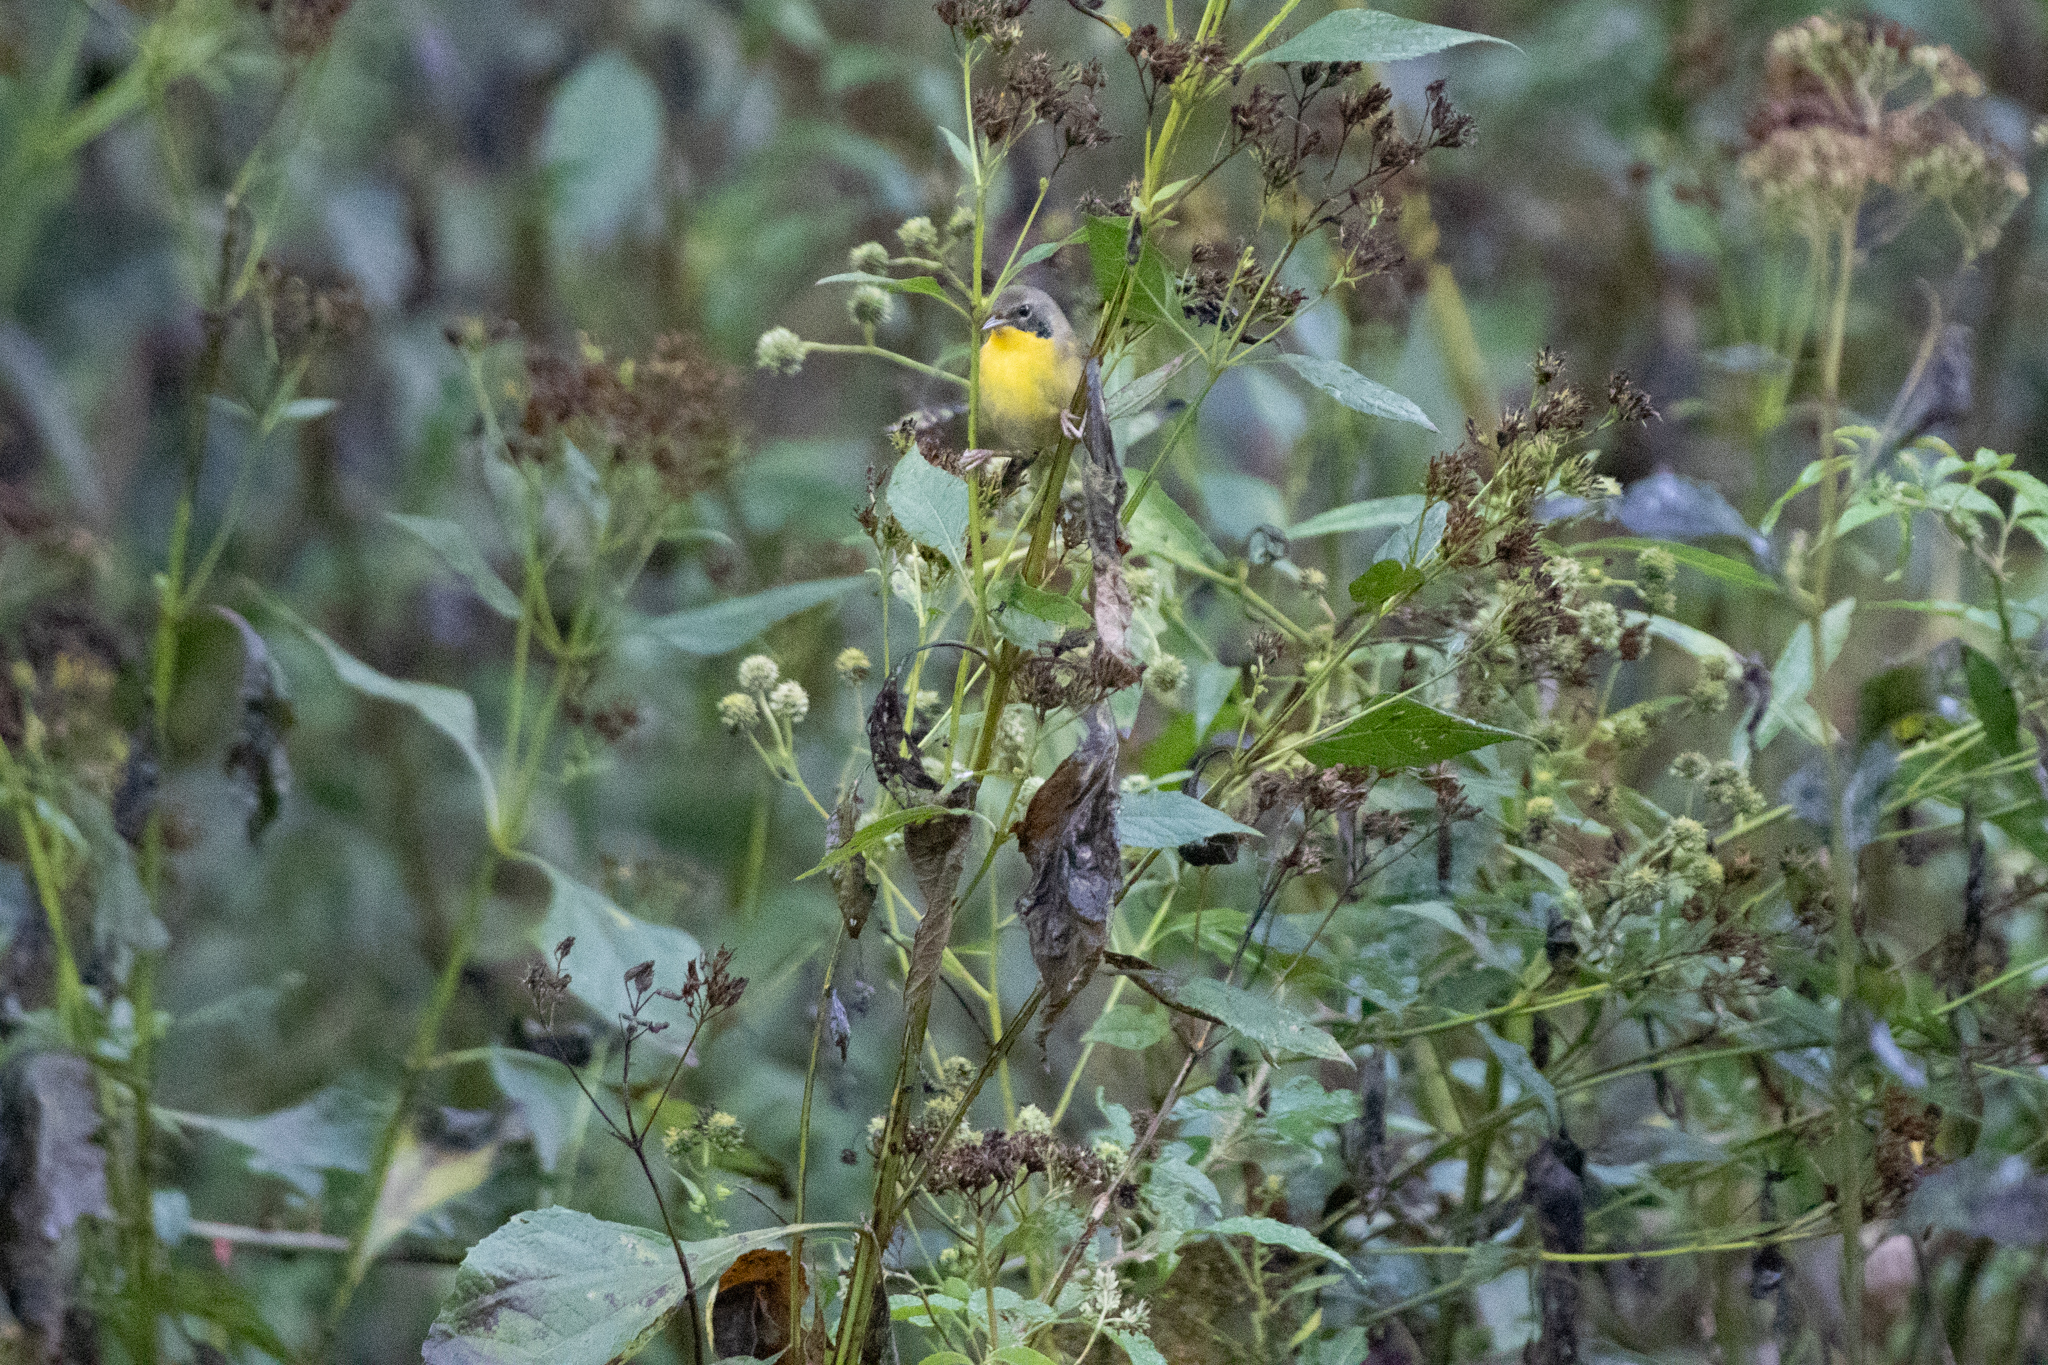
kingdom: Animalia
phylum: Chordata
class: Aves
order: Passeriformes
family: Parulidae
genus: Geothlypis
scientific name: Geothlypis trichas
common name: Common yellowthroat
